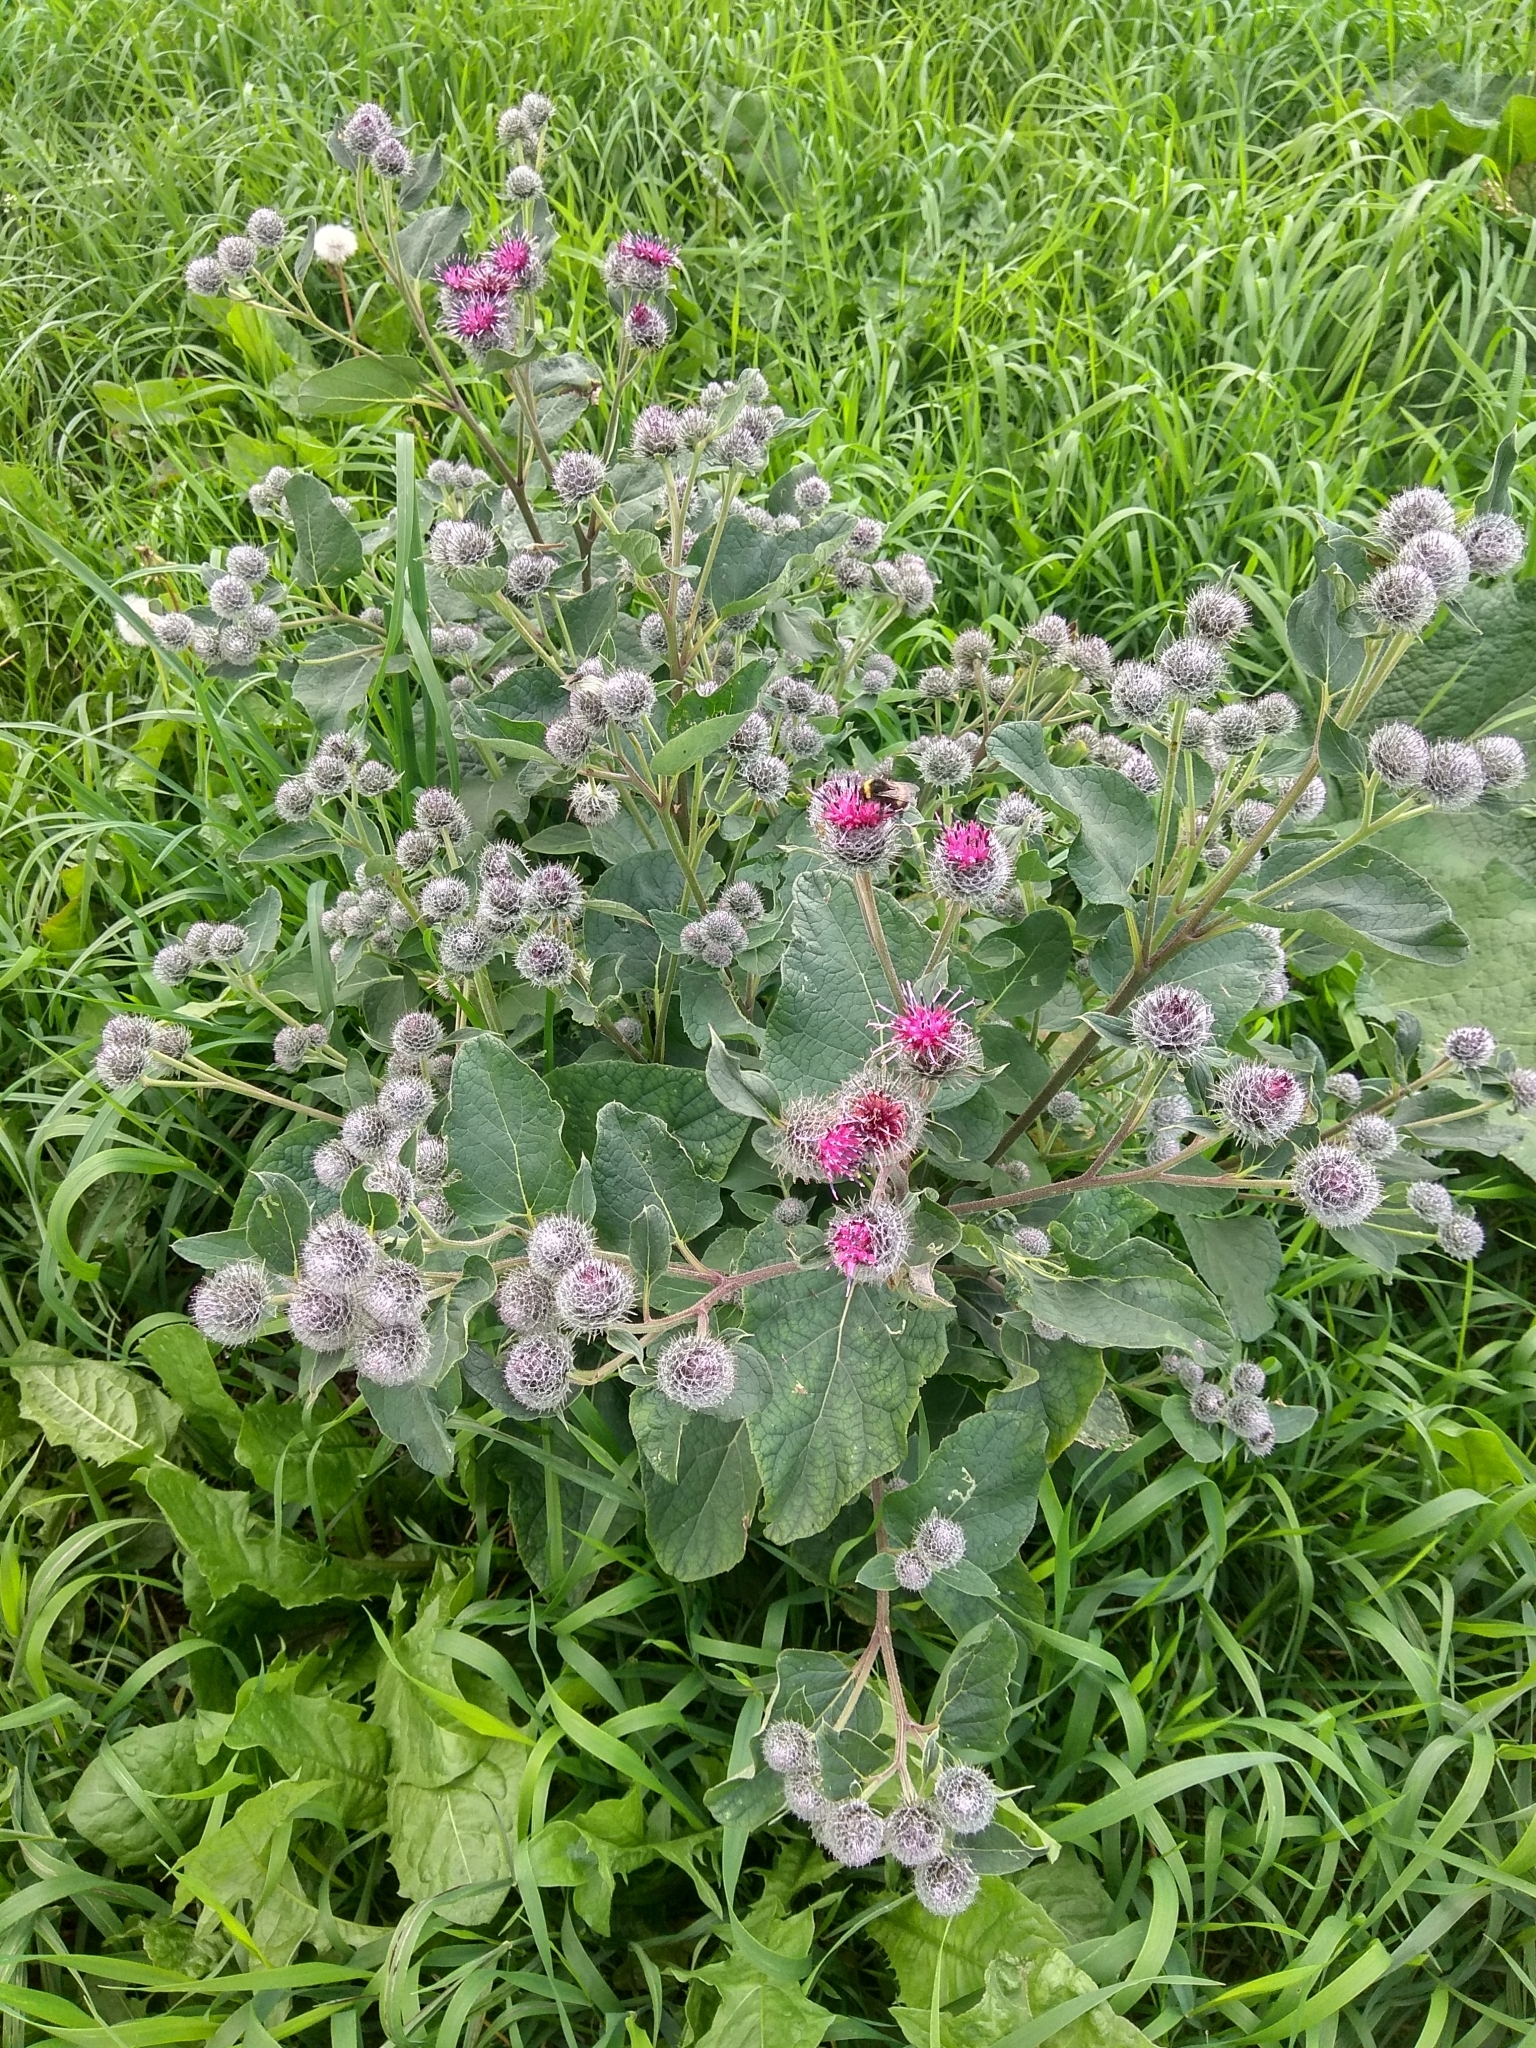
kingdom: Plantae
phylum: Tracheophyta
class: Magnoliopsida
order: Asterales
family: Asteraceae
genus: Arctium
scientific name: Arctium tomentosum
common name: Woolly burdock
